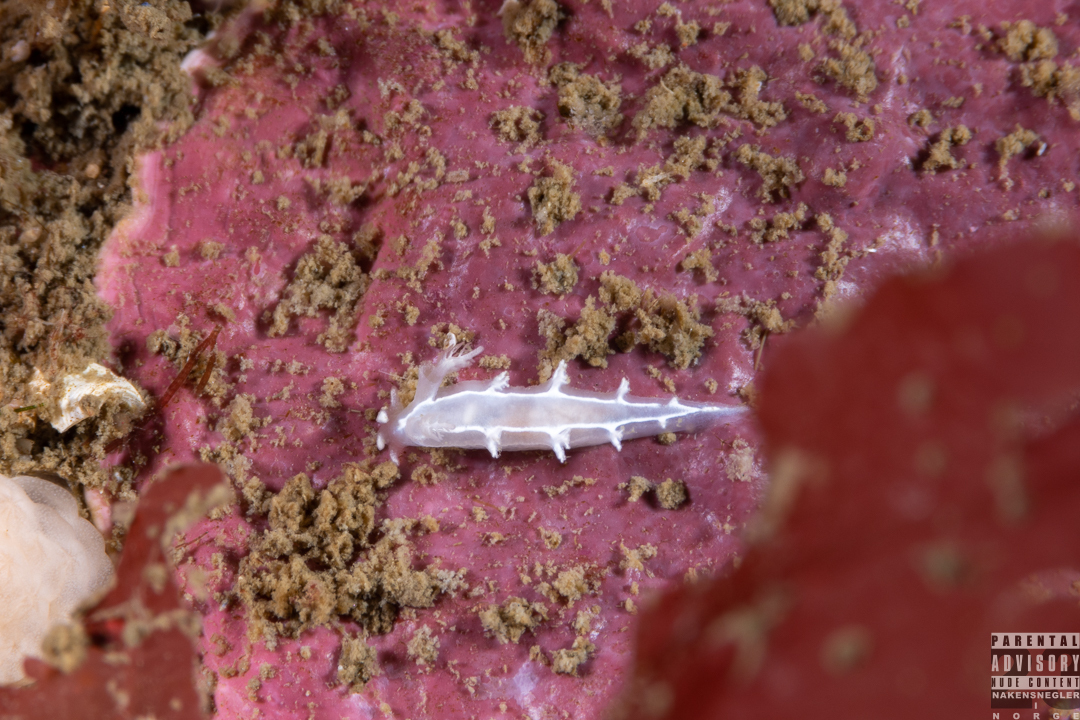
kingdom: Animalia
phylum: Mollusca
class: Gastropoda
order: Nudibranchia
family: Tritoniidae
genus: Duvaucelia
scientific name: Duvaucelia lineata
